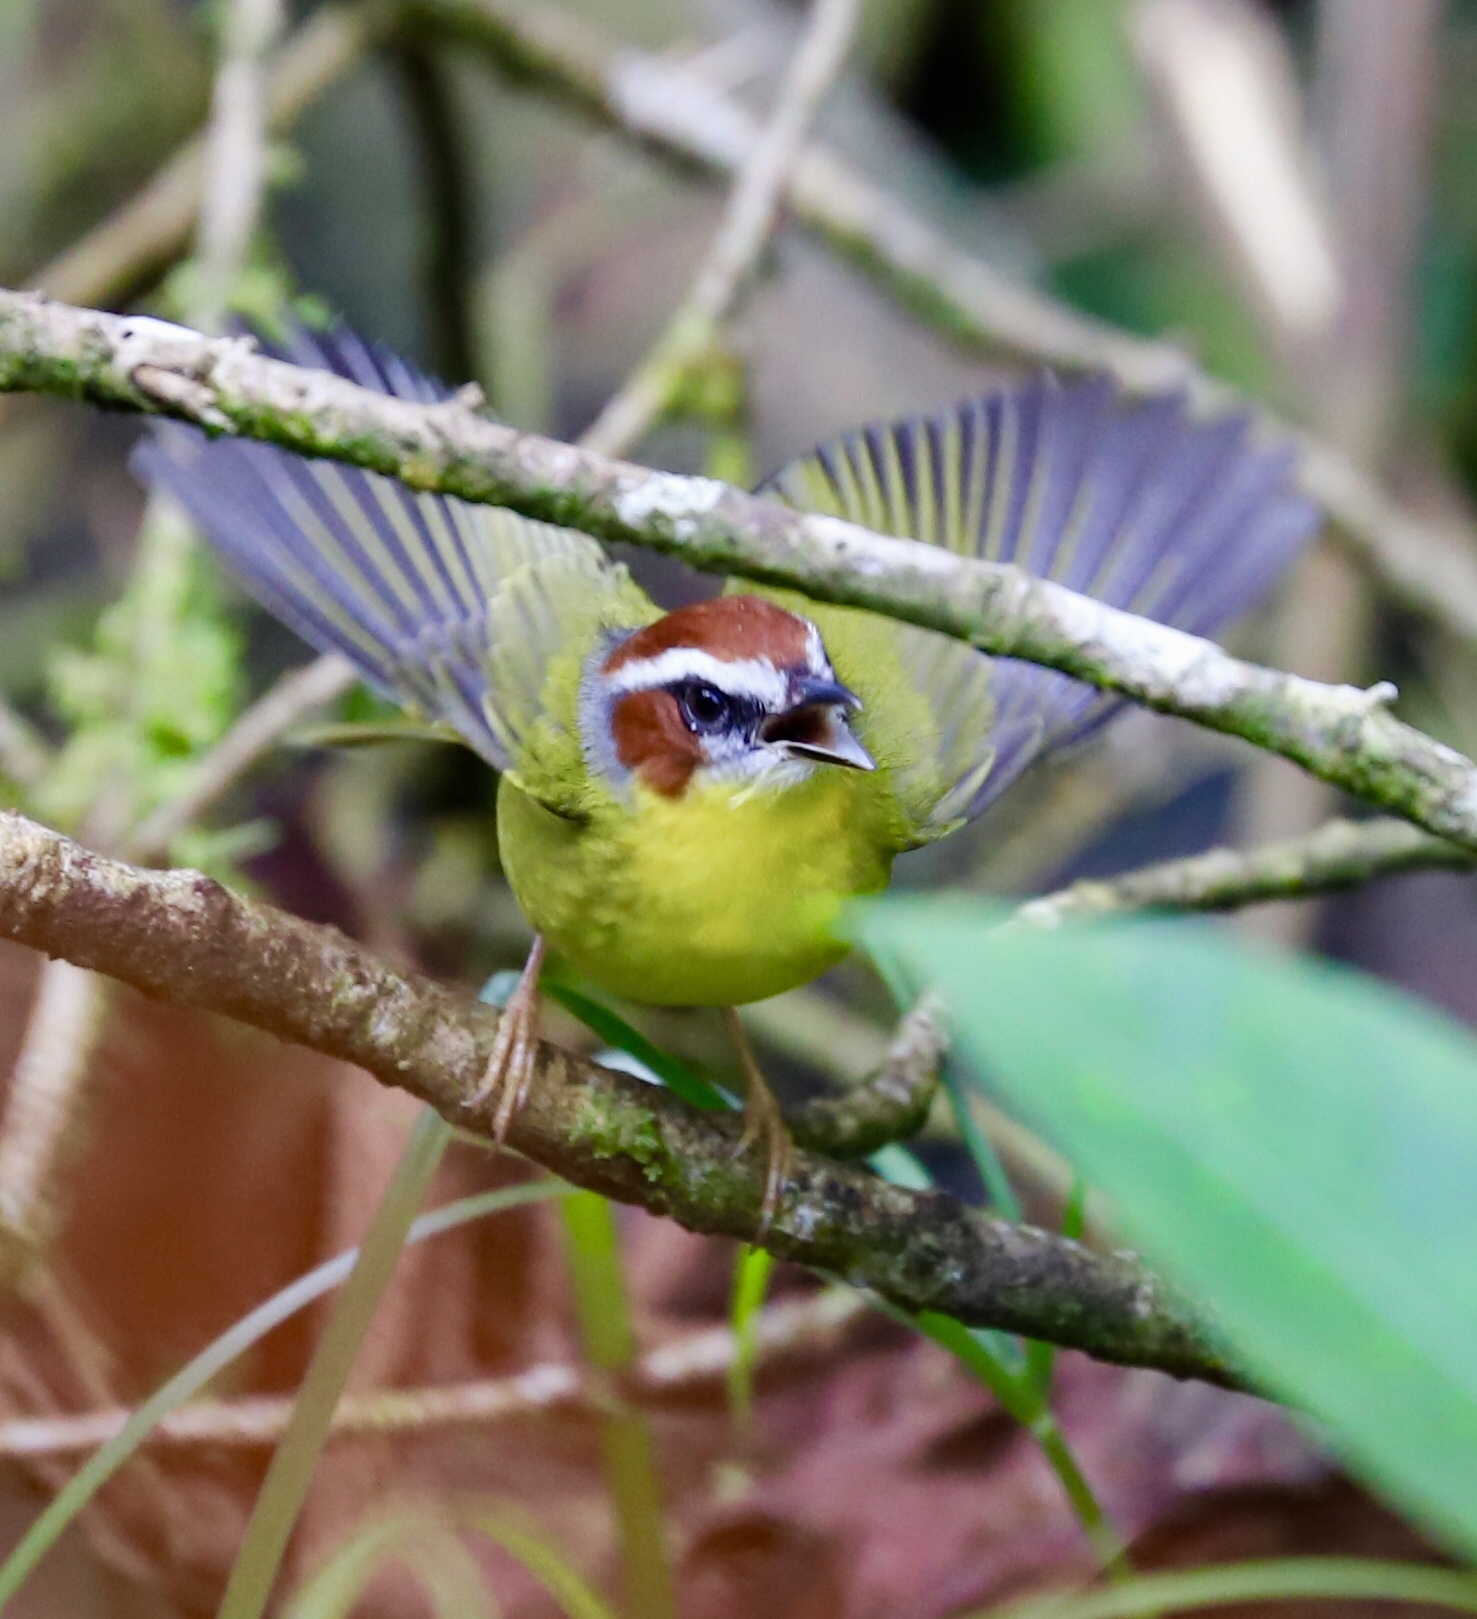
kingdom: Animalia
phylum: Chordata
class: Aves
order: Passeriformes
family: Parulidae
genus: Basileuterus
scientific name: Basileuterus rufifrons
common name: Rufous-capped warbler
